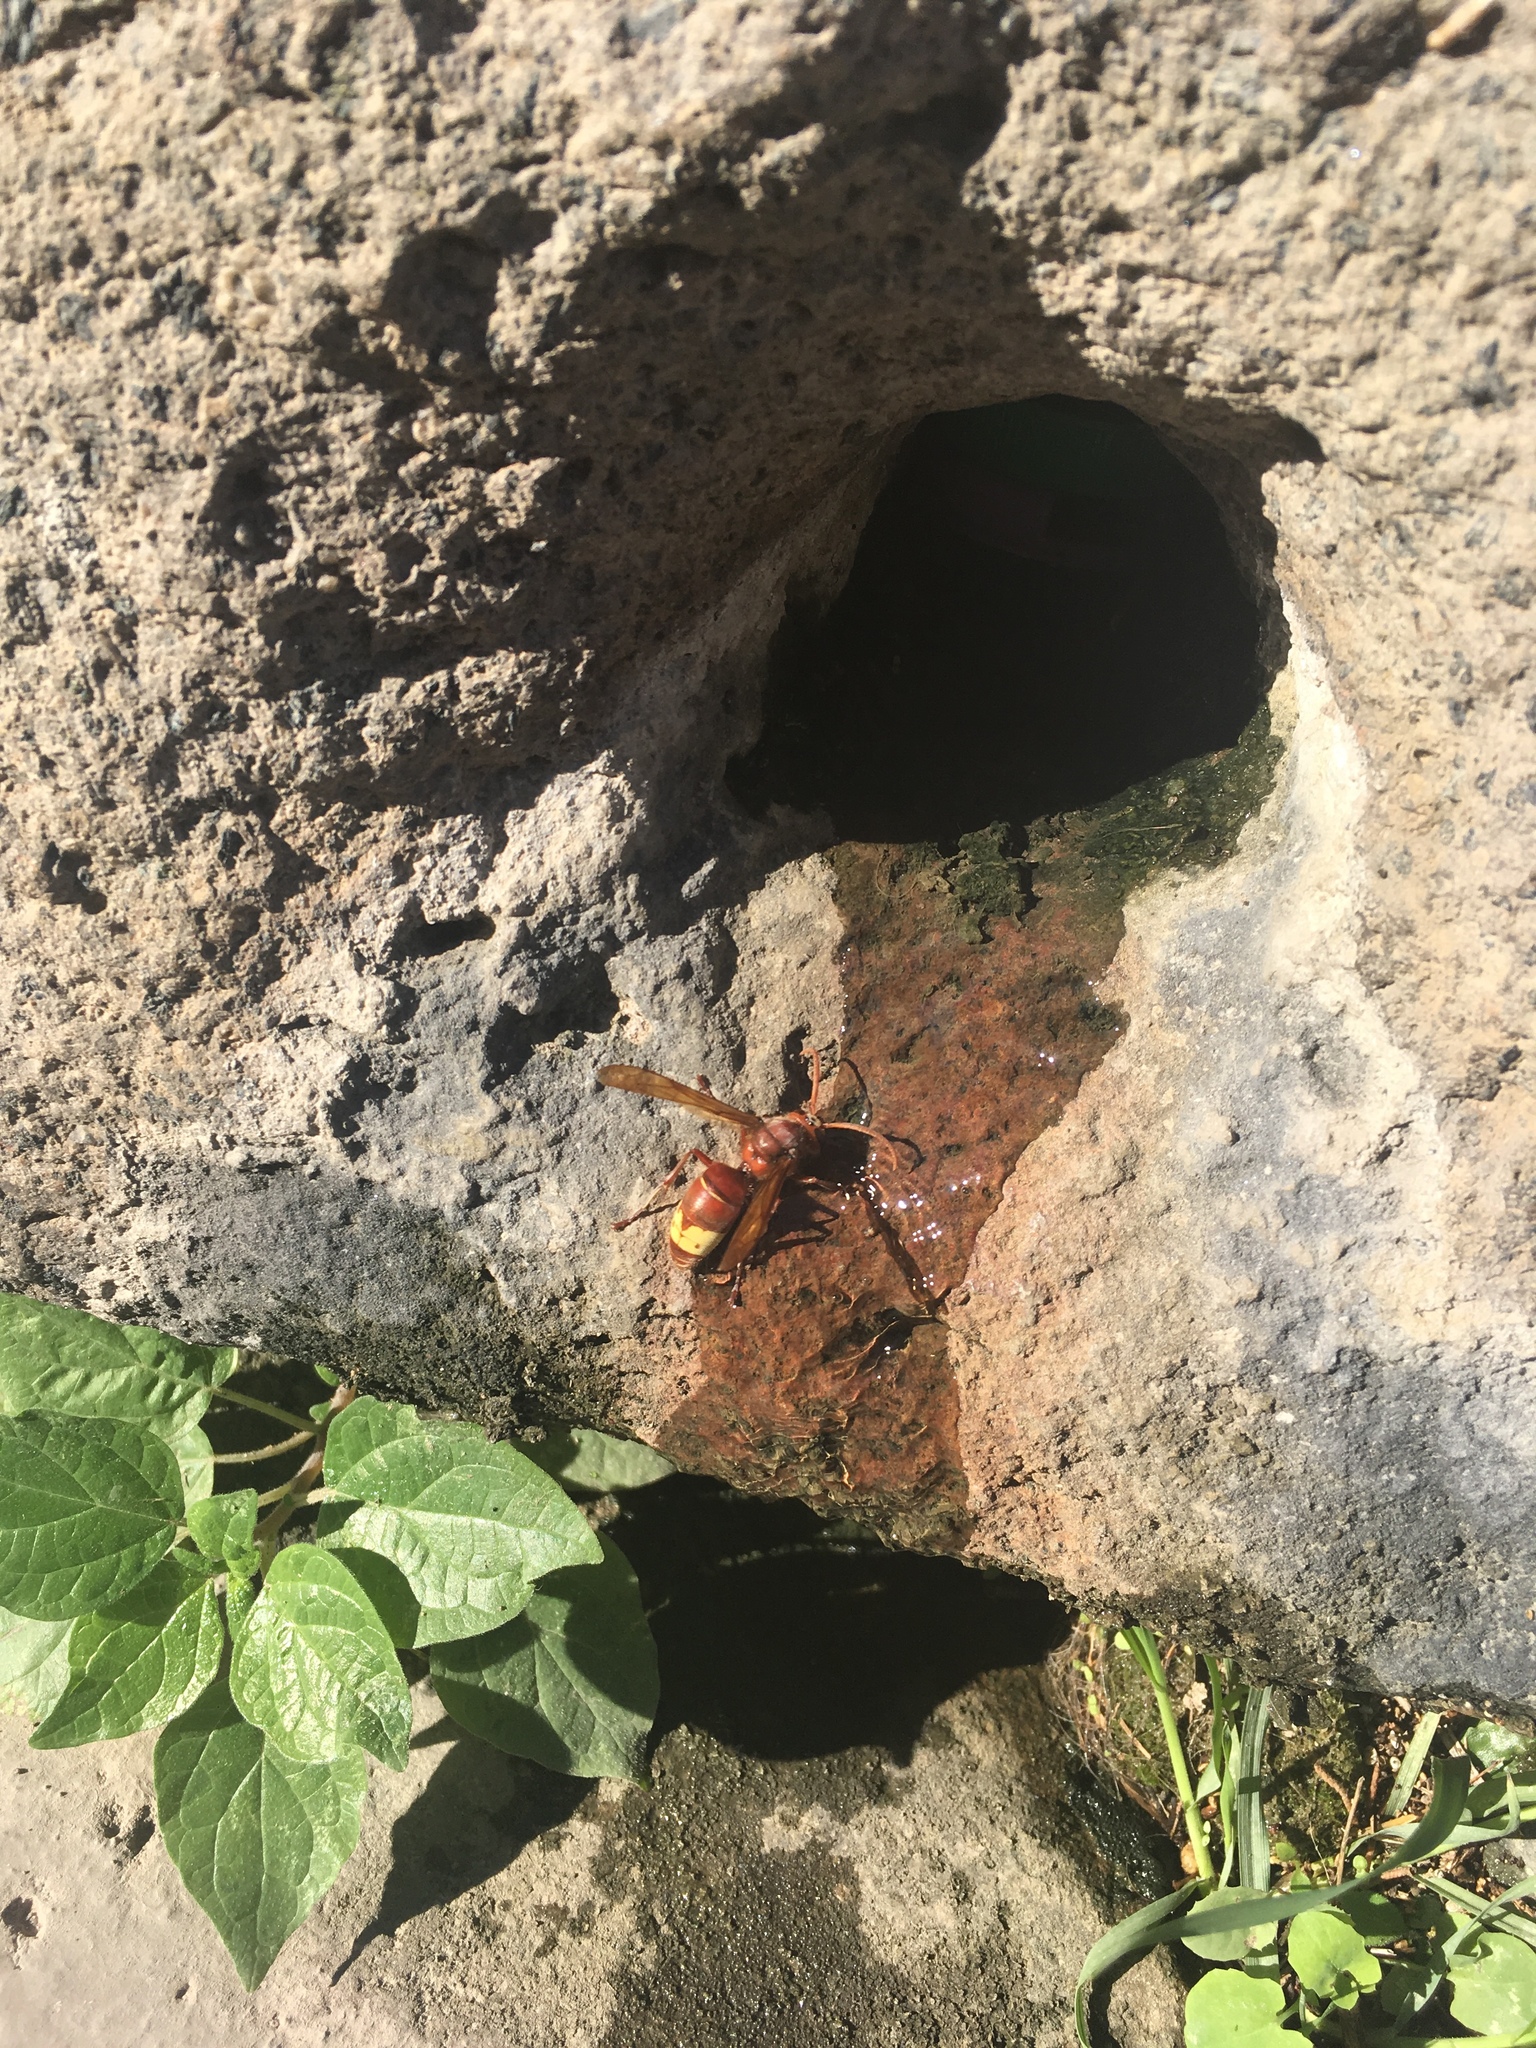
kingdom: Animalia
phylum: Arthropoda
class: Insecta
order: Hymenoptera
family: Vespidae
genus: Vespa
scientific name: Vespa orientalis
